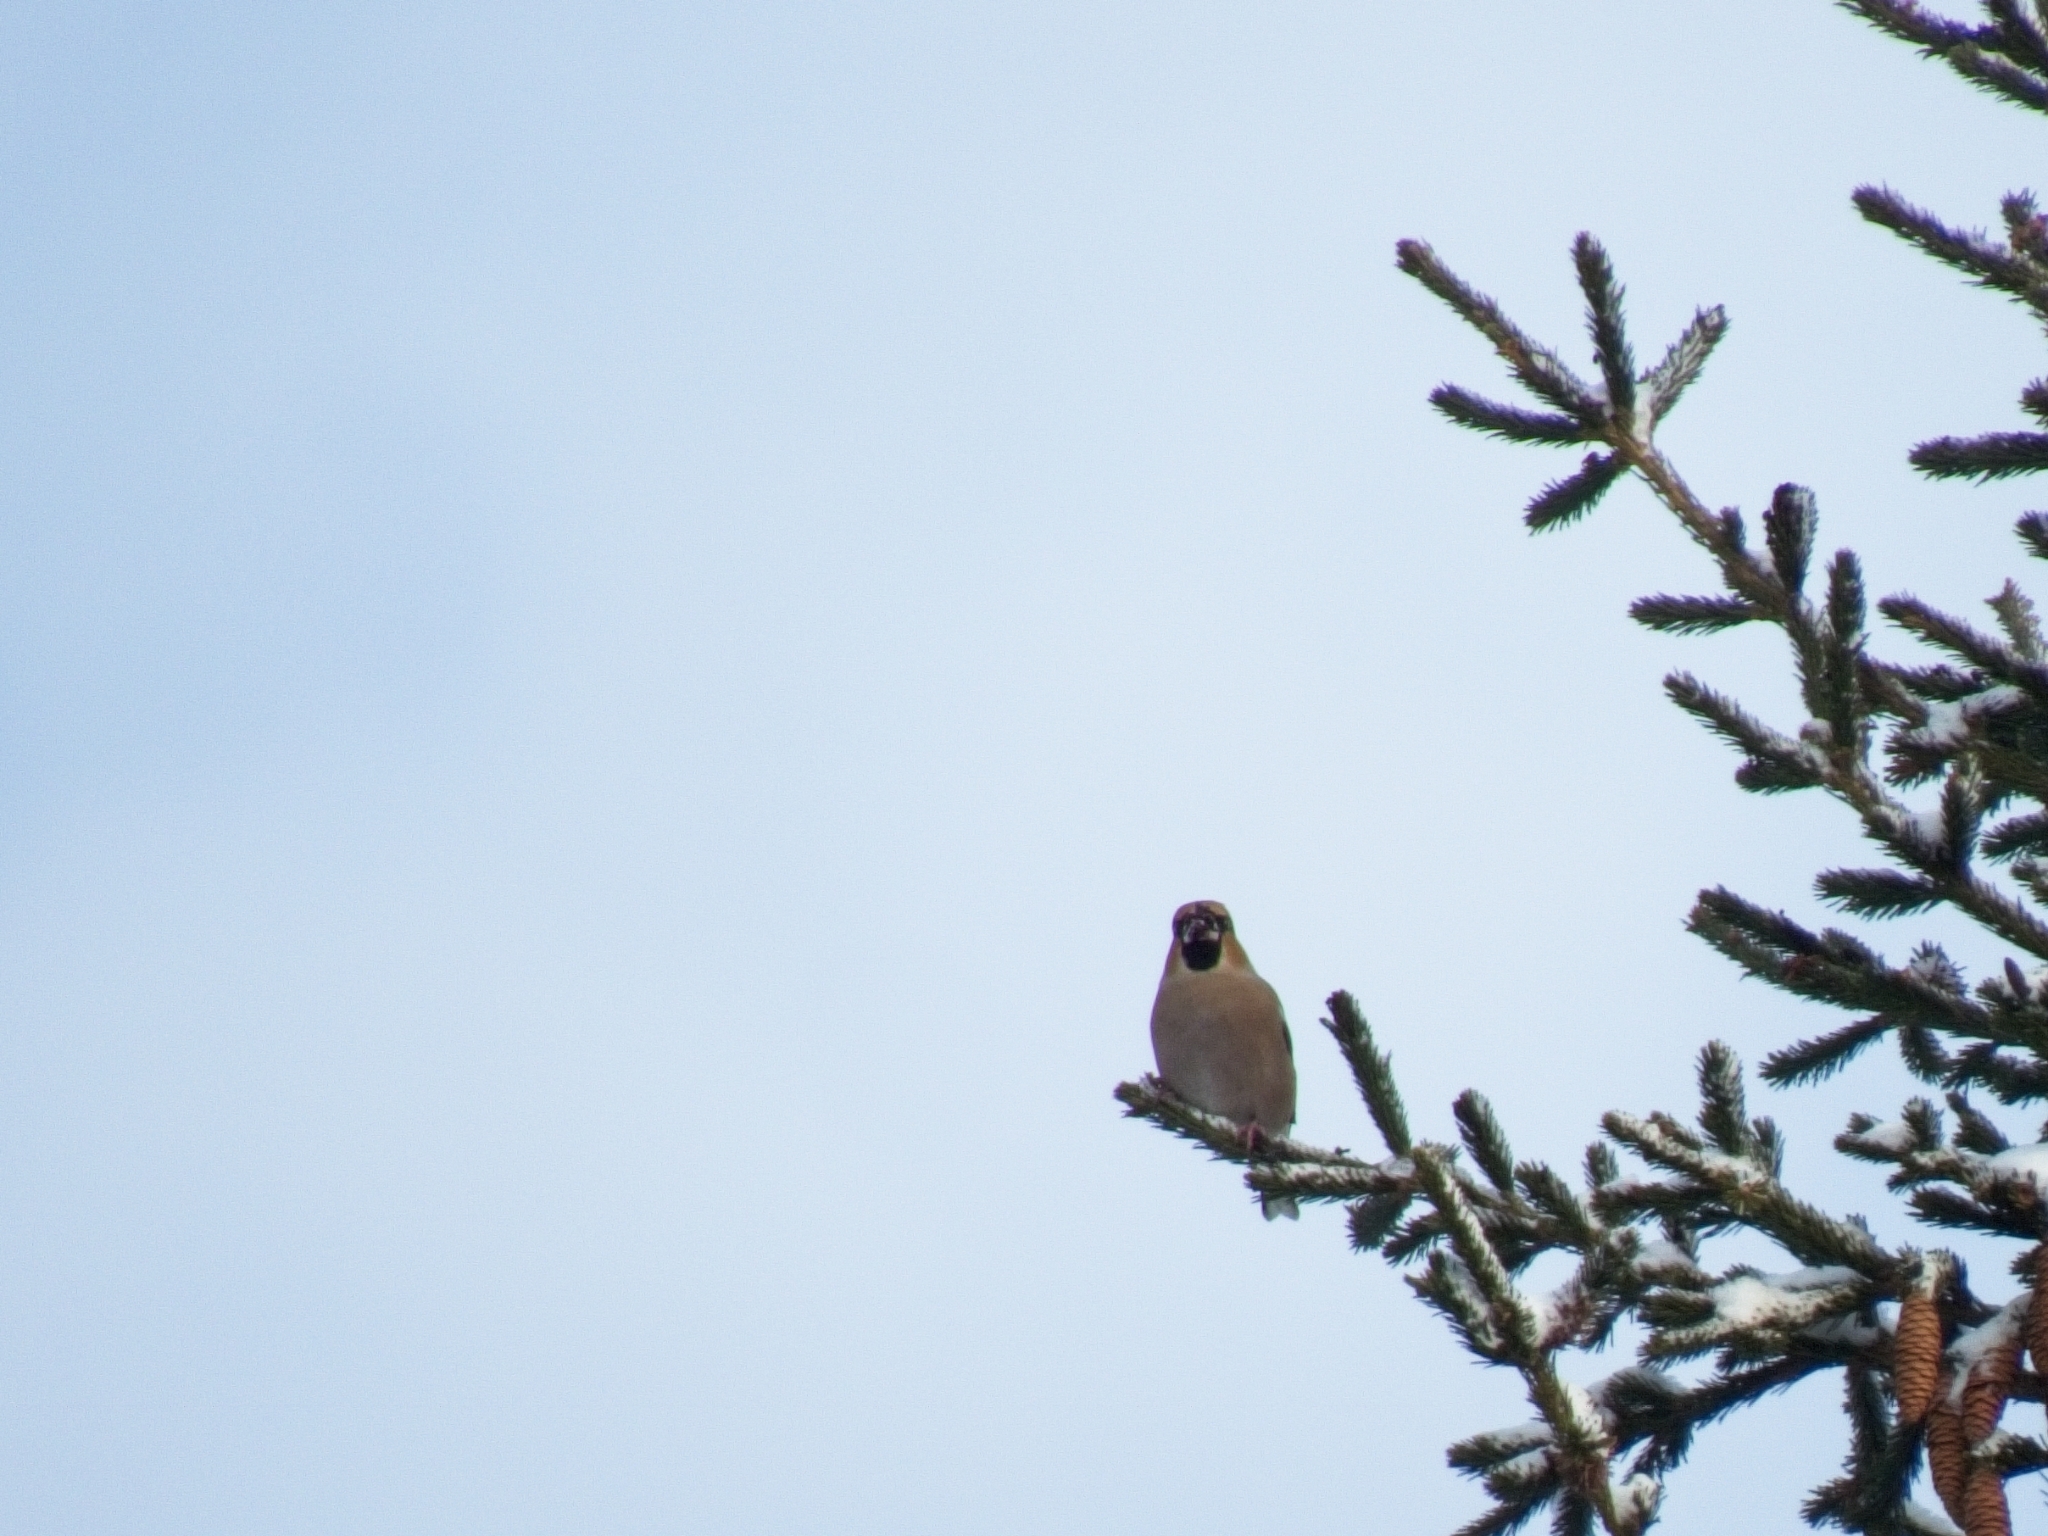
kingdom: Animalia
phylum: Chordata
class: Aves
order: Passeriformes
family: Fringillidae
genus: Coccothraustes
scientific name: Coccothraustes coccothraustes
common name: Hawfinch
